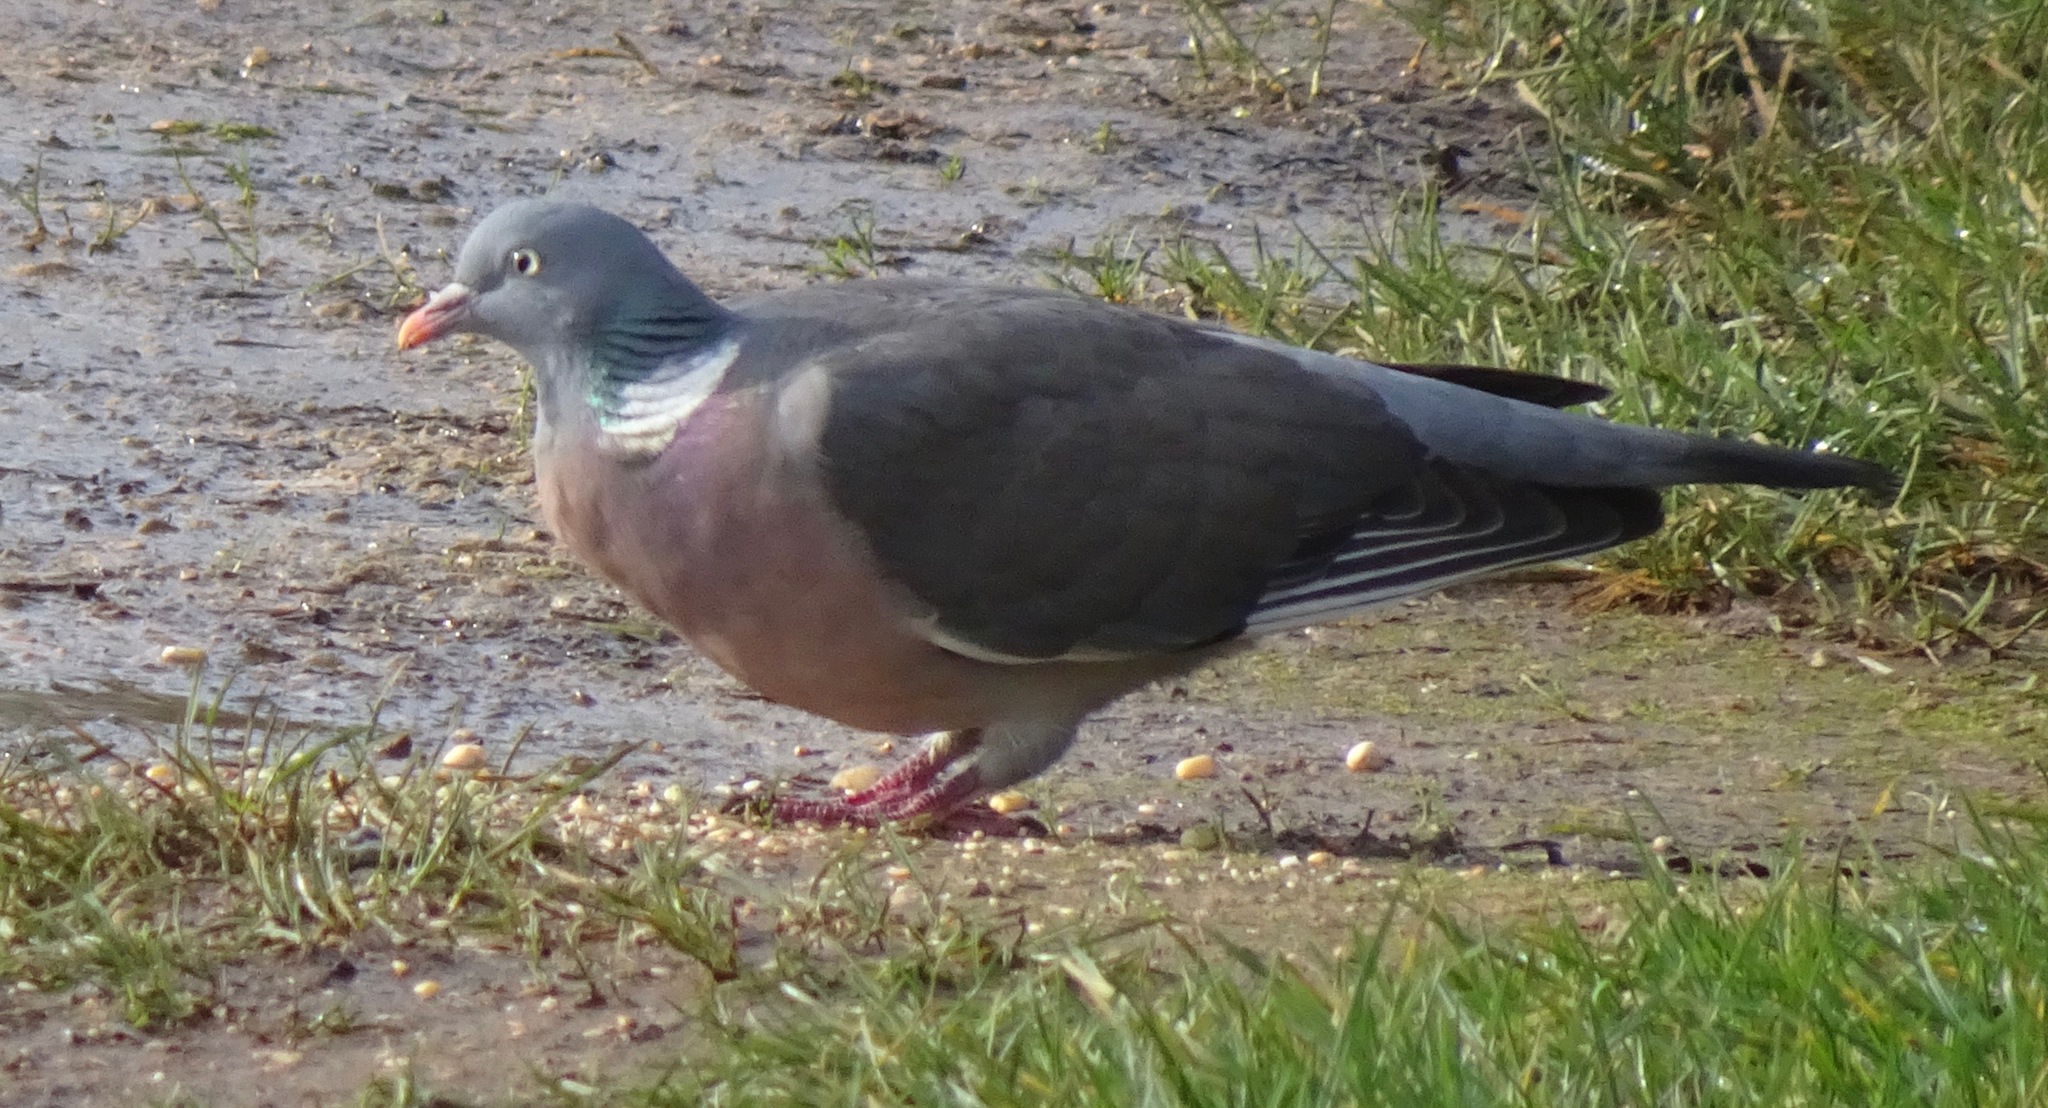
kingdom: Animalia
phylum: Chordata
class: Aves
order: Columbiformes
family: Columbidae
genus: Columba
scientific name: Columba palumbus
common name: Common wood pigeon
